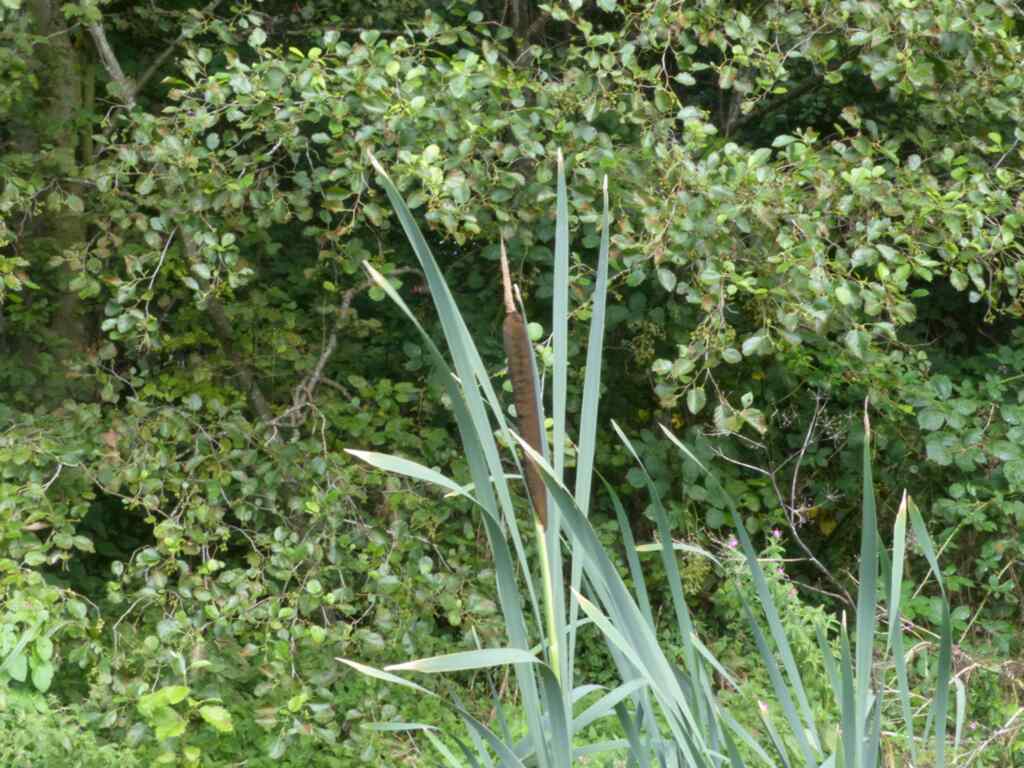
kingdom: Plantae
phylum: Tracheophyta
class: Liliopsida
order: Poales
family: Typhaceae
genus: Typha
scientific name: Typha latifolia
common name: Broadleaf cattail
